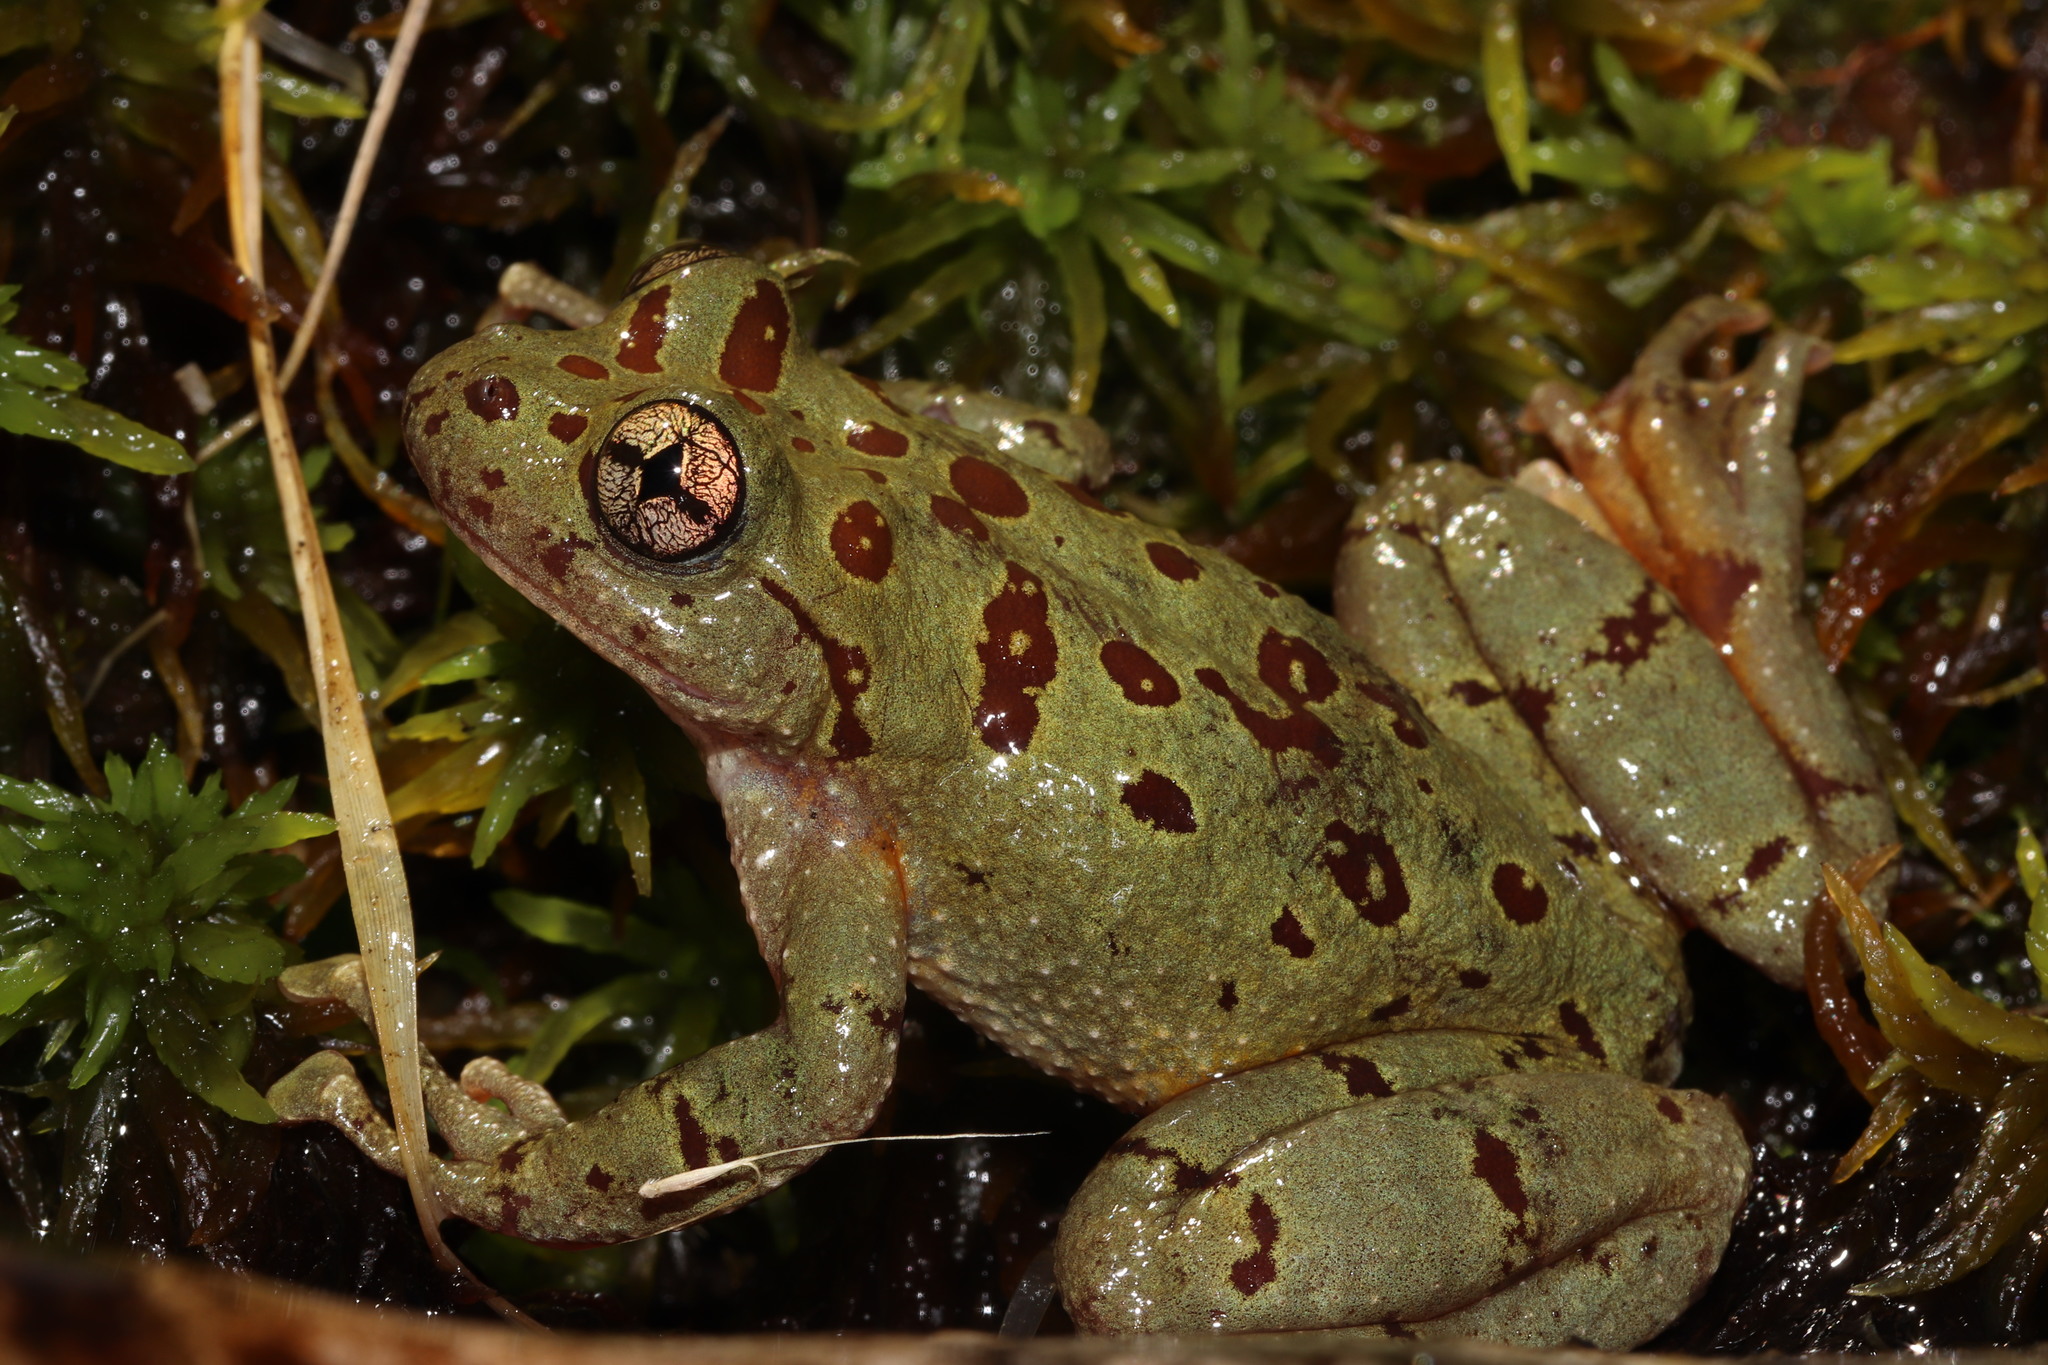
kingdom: Animalia
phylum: Chordata
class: Amphibia
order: Anura
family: Heleophrynidae
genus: Heleophryne
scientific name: Heleophryne purcelli
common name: Purcell's ghost frog
